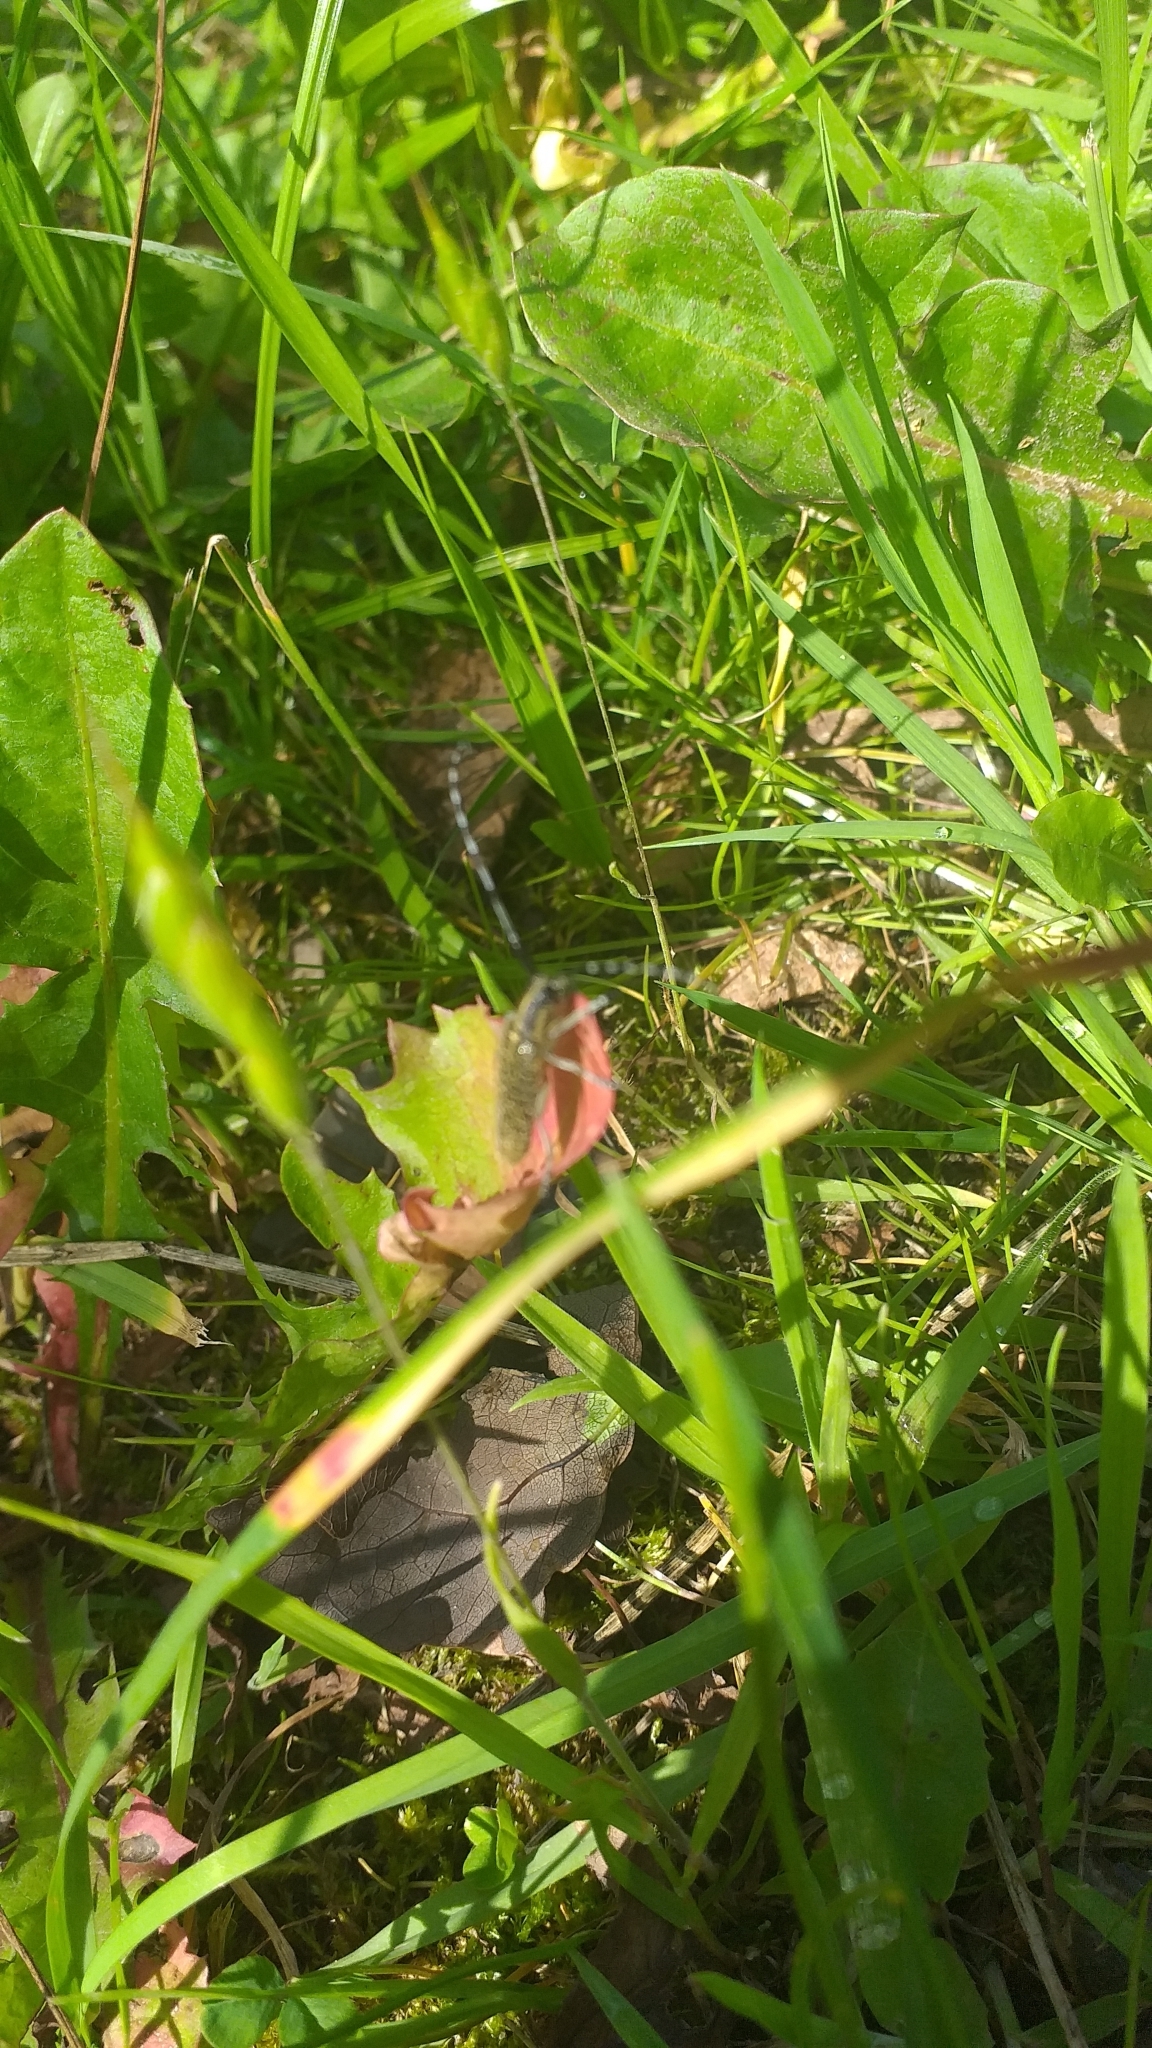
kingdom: Animalia
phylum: Arthropoda
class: Insecta
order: Coleoptera
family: Cerambycidae
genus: Agapanthia
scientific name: Agapanthia villosoviridescens
